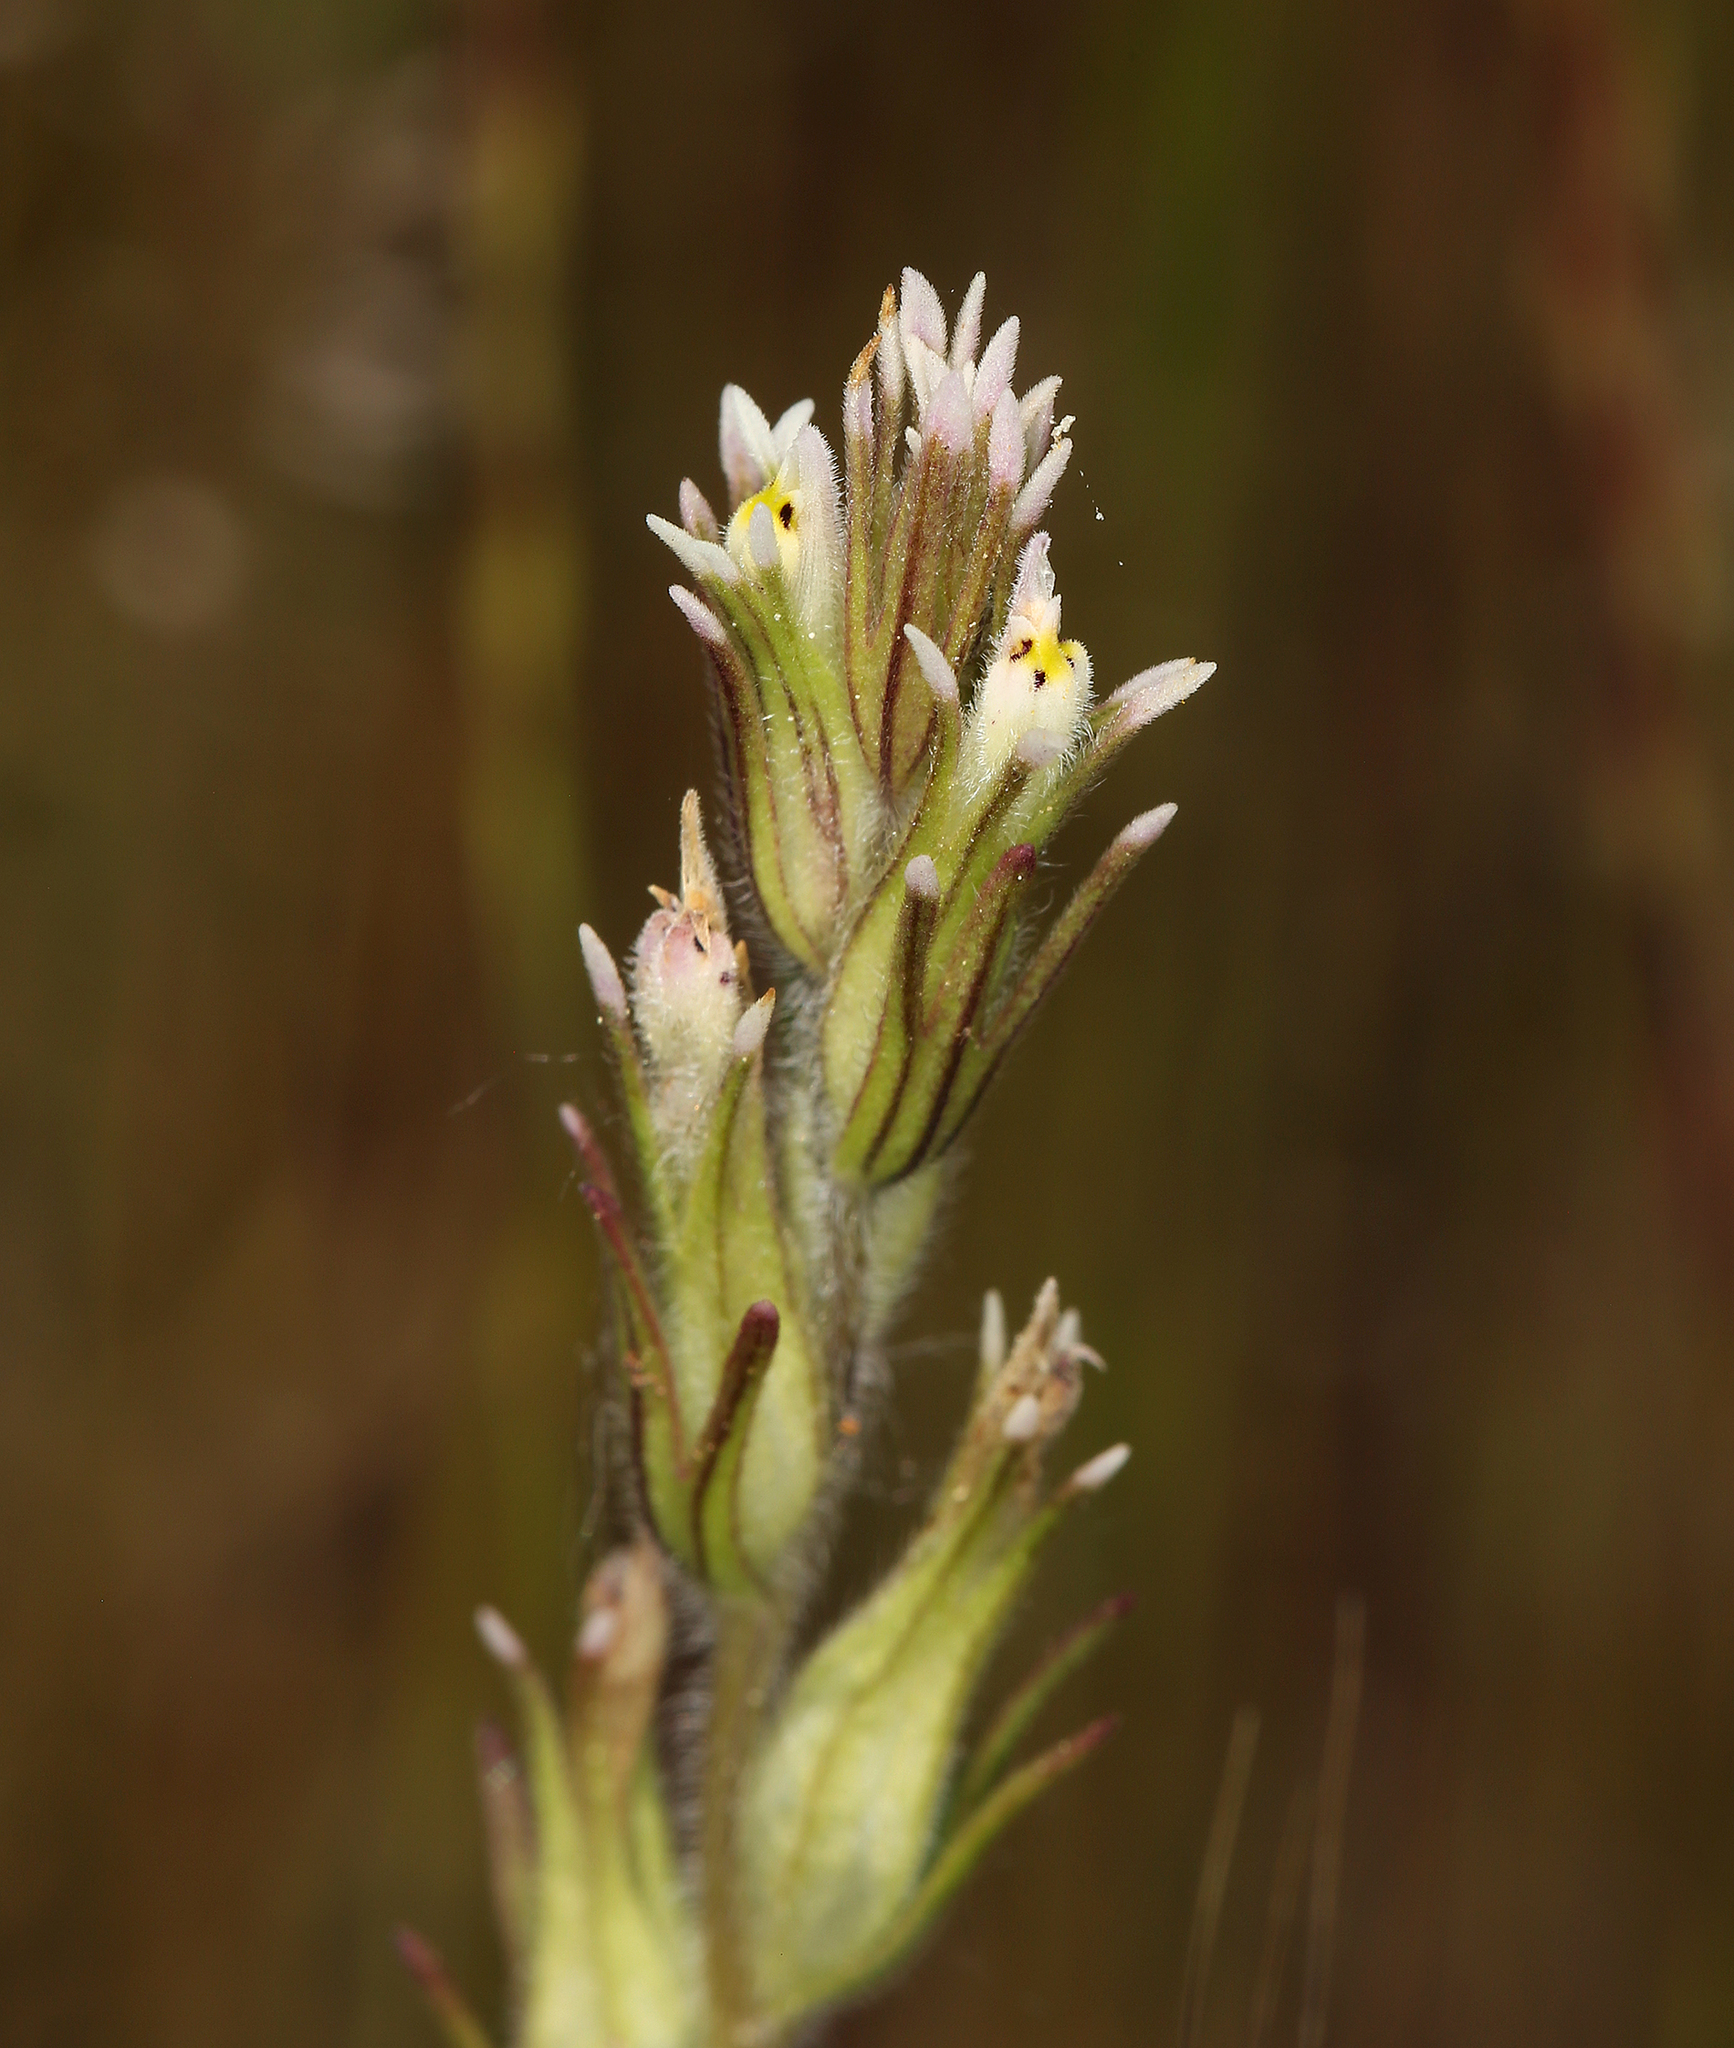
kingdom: Plantae
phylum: Tracheophyta
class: Magnoliopsida
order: Lamiales
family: Orobanchaceae
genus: Castilleja
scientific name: Castilleja attenuata
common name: Valley tassels
